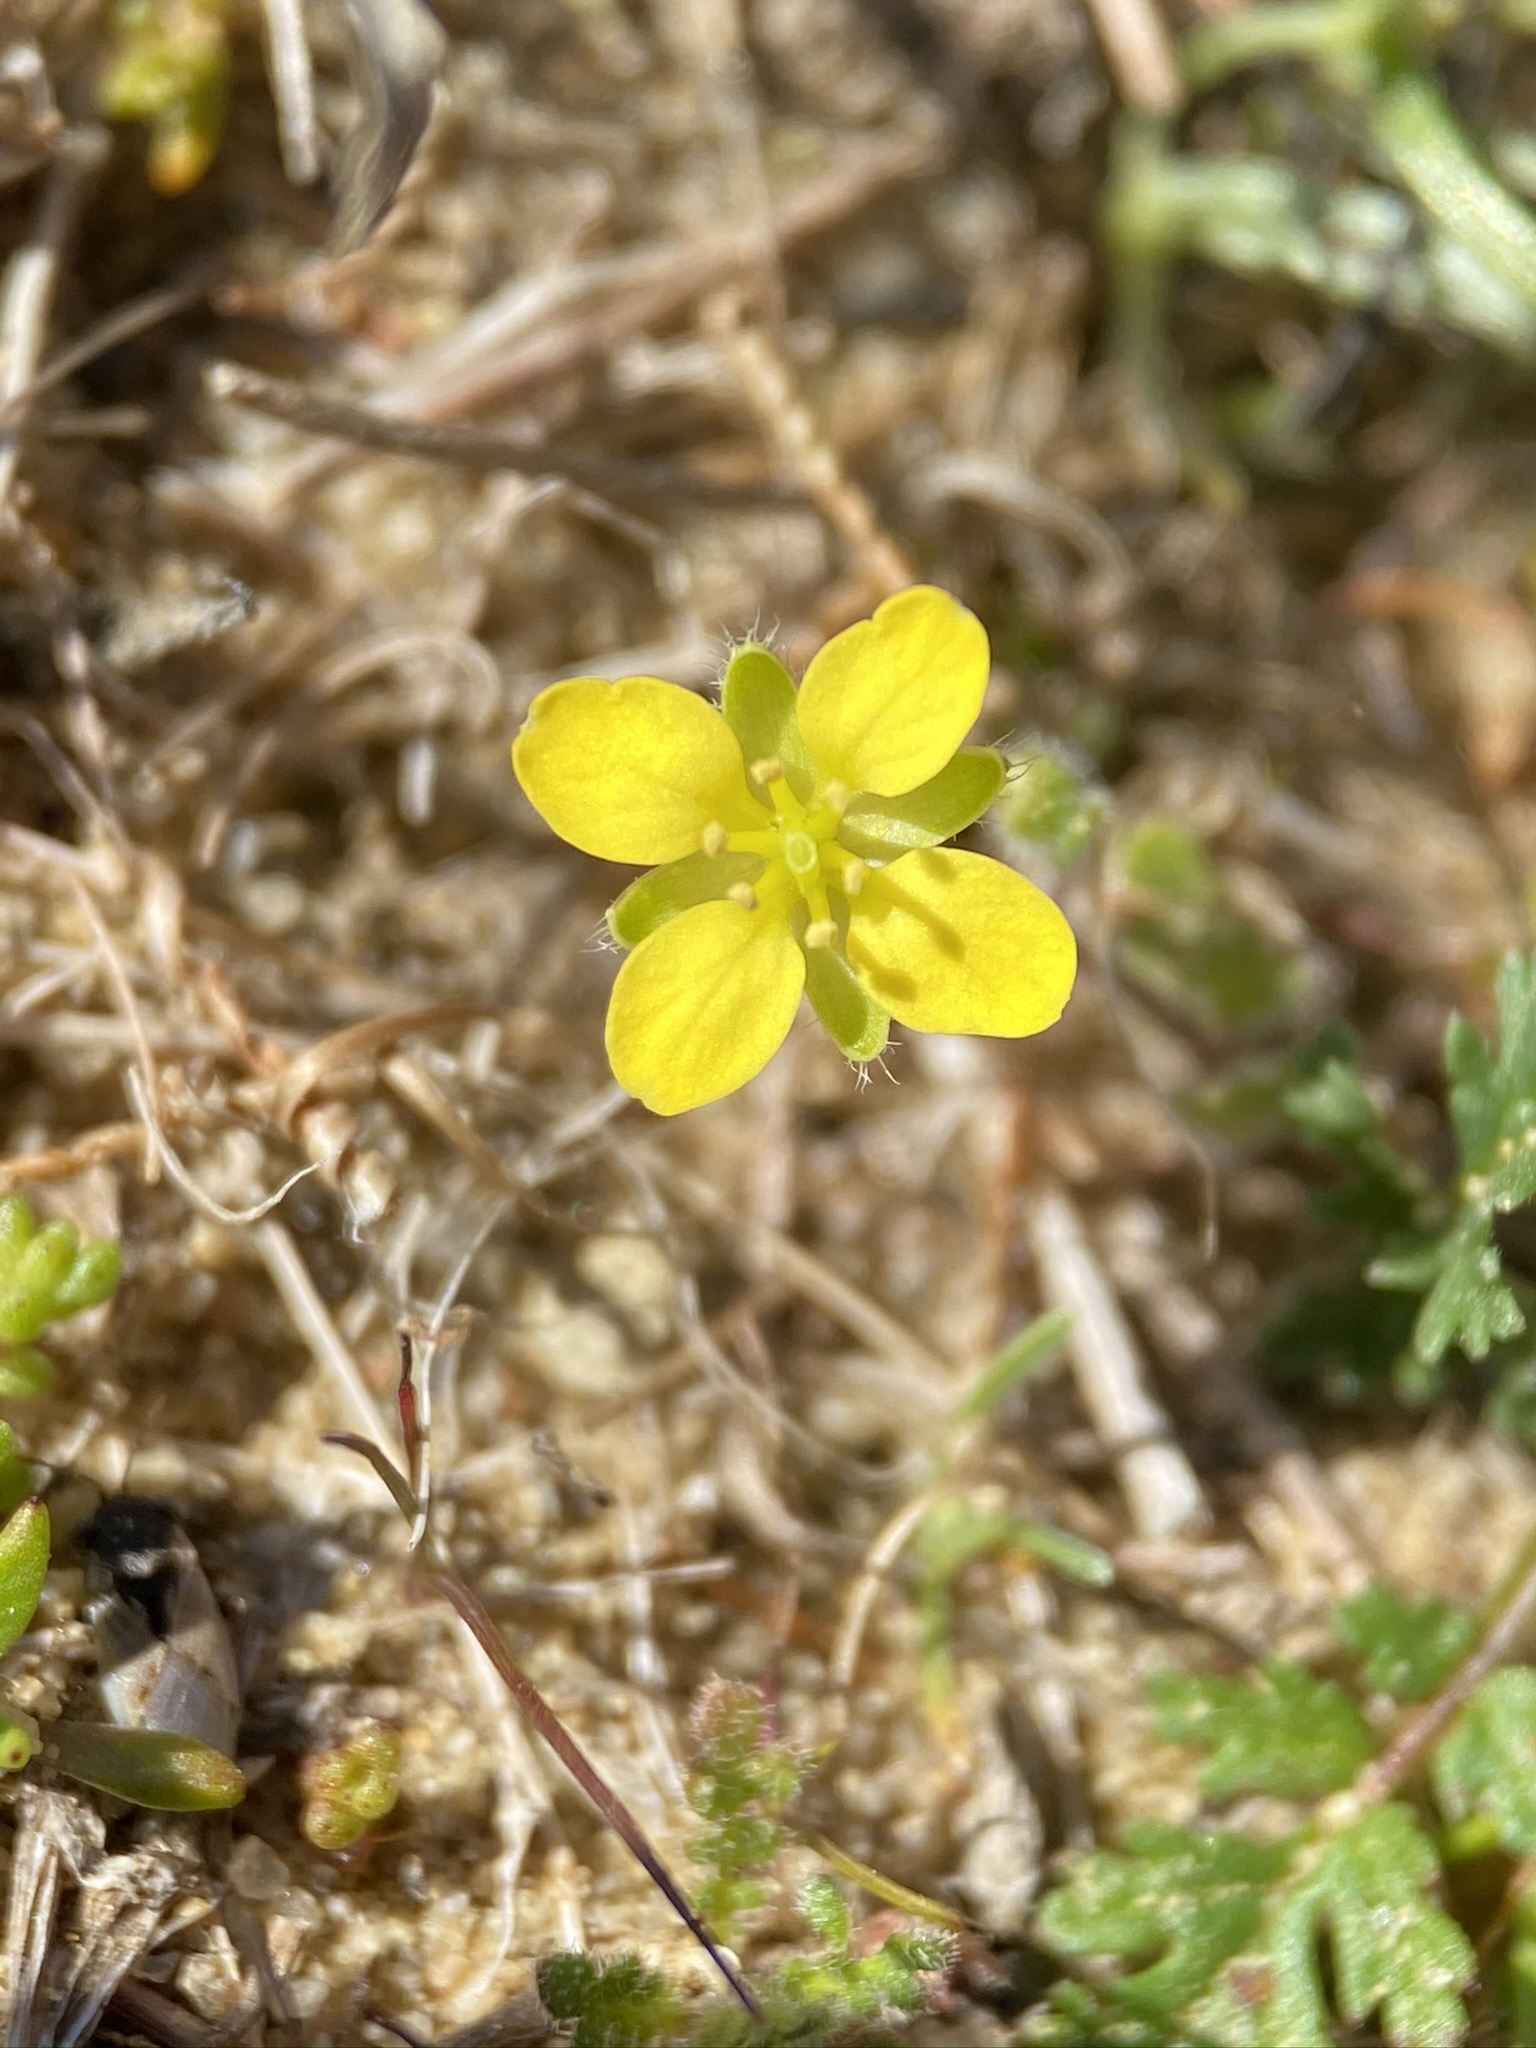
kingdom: Plantae
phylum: Tracheophyta
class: Magnoliopsida
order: Brassicales
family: Brassicaceae
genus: Tropidocarpum
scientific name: Tropidocarpum gracile
